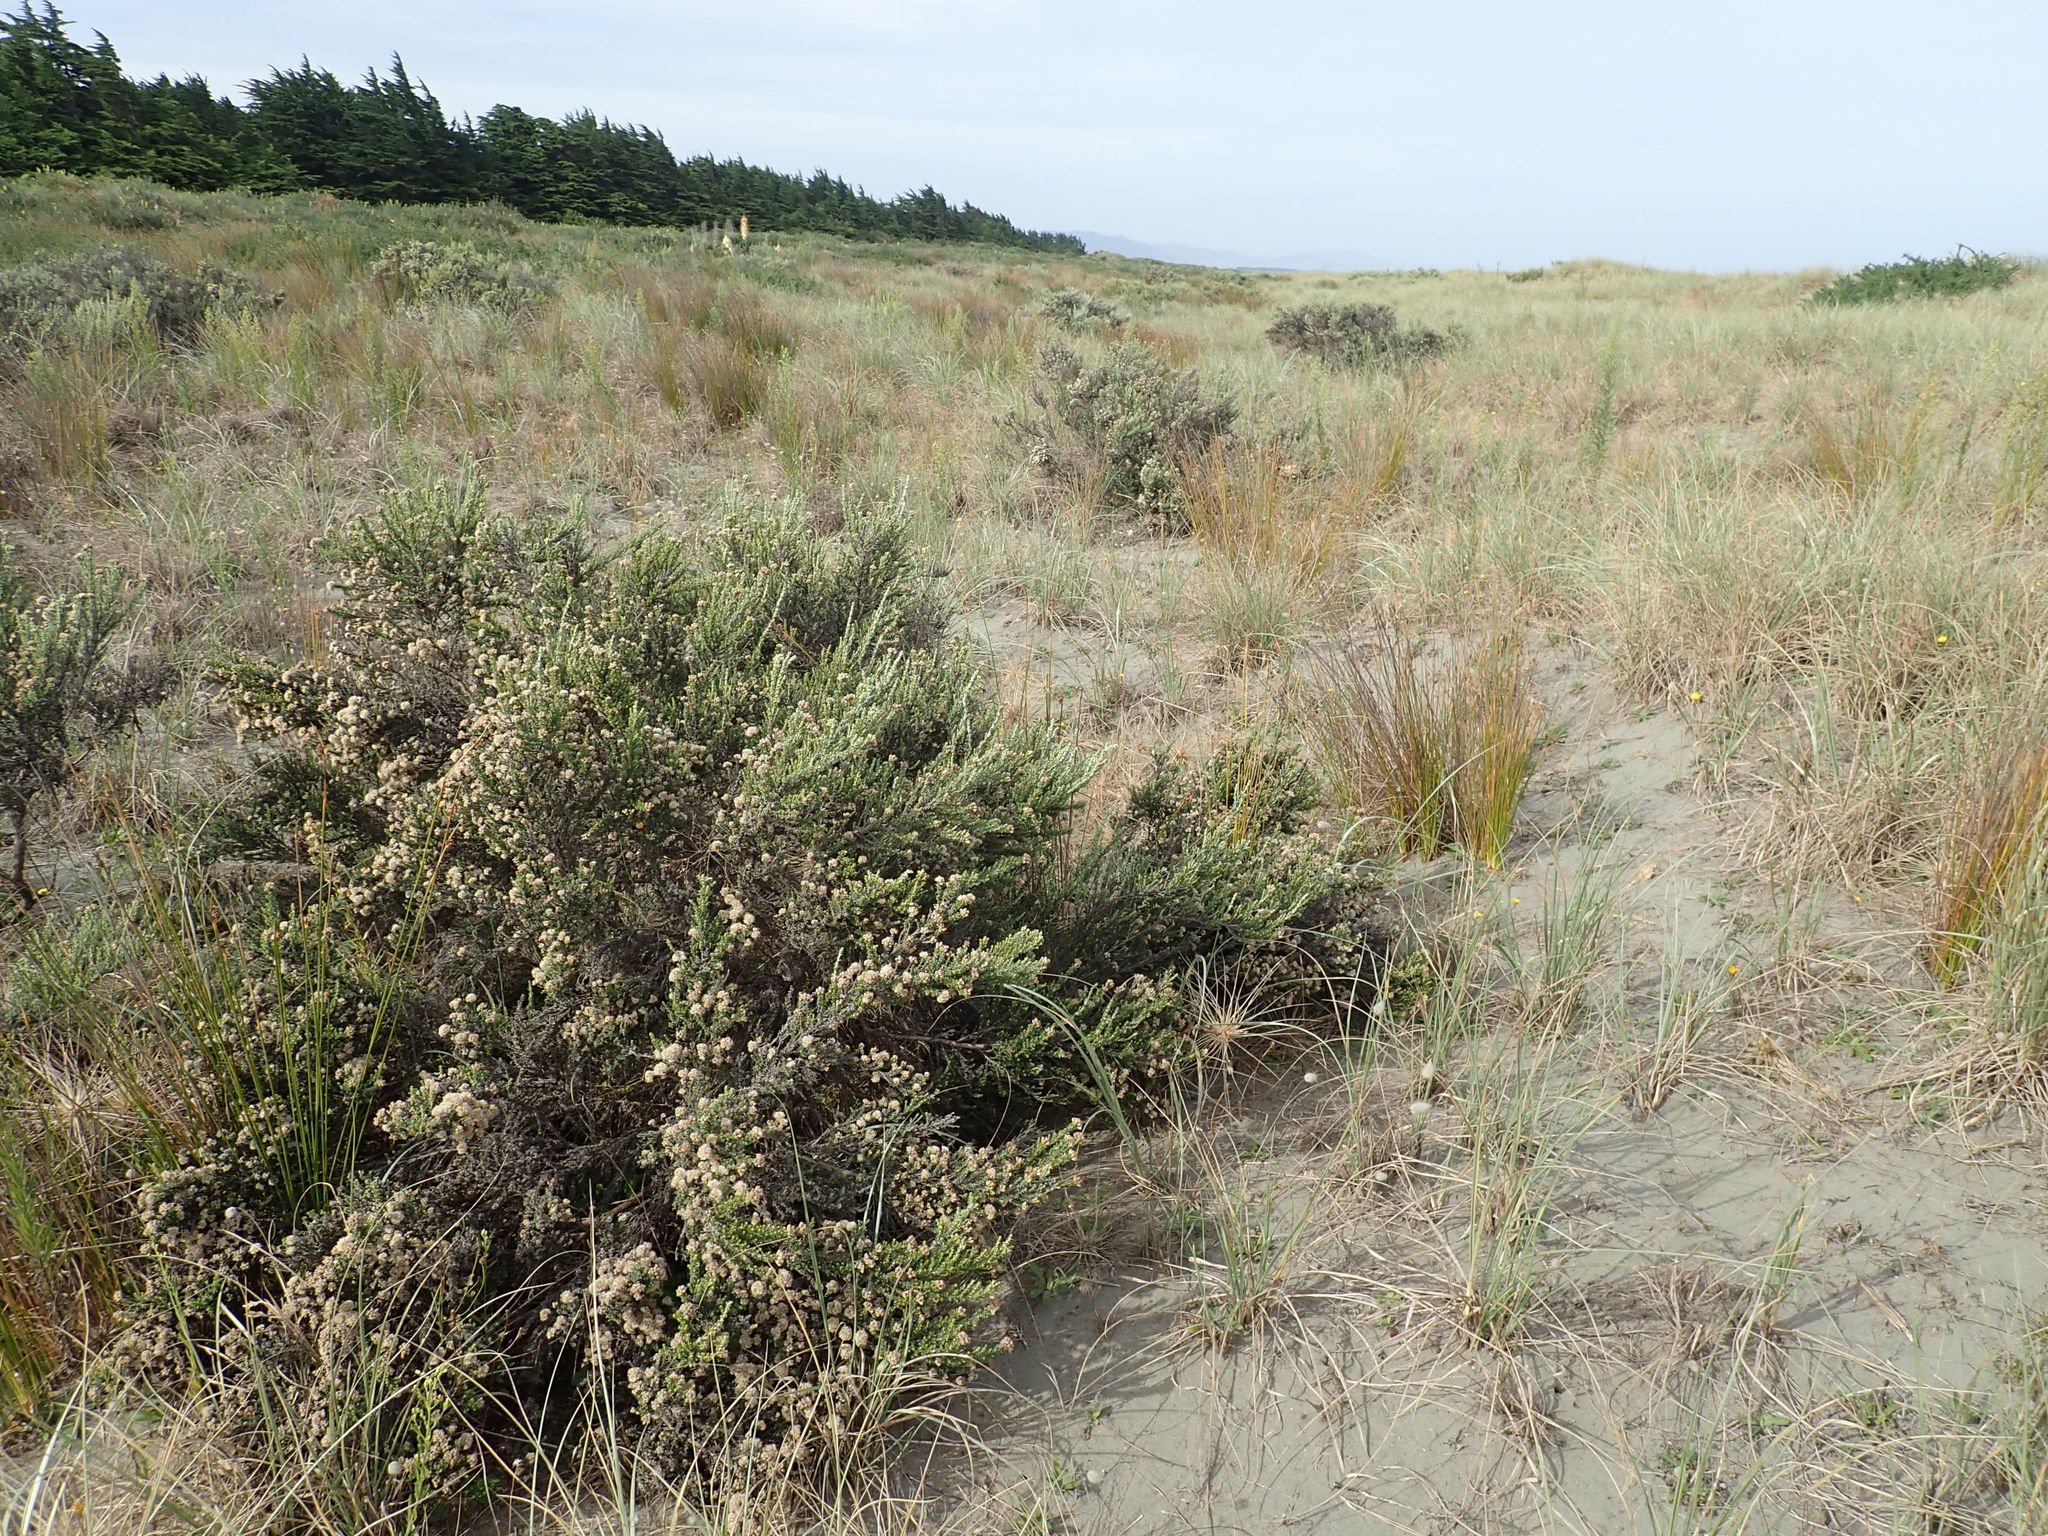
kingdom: Plantae
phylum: Tracheophyta
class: Magnoliopsida
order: Asterales
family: Asteraceae
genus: Ozothamnus
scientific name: Ozothamnus leptophyllus
